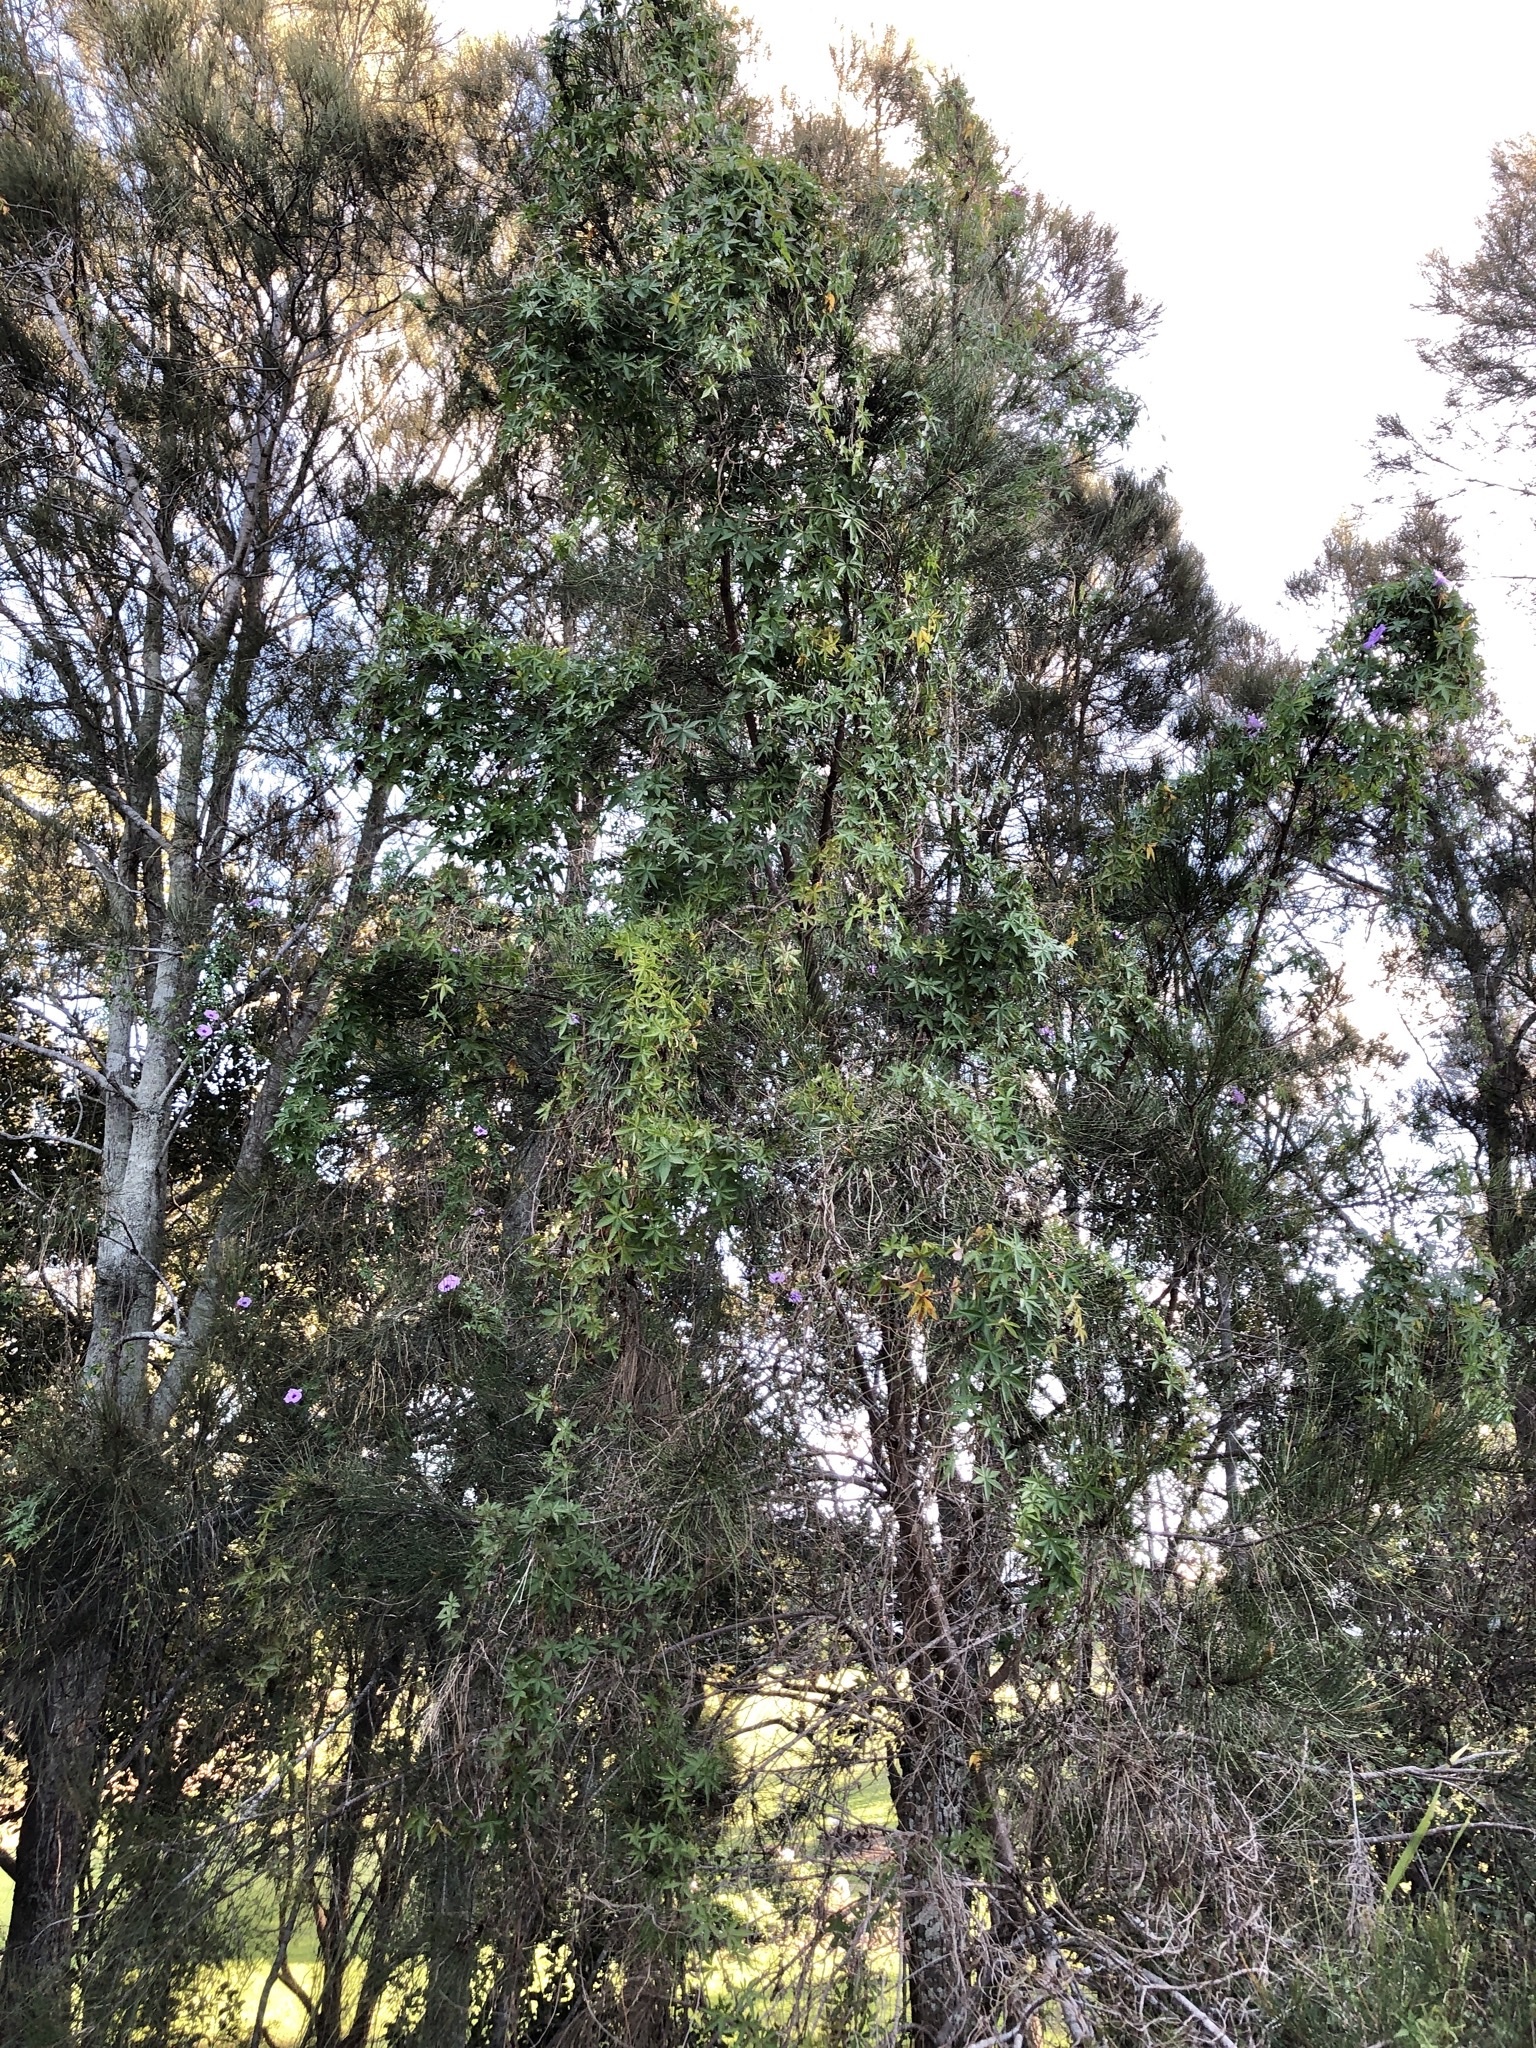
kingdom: Plantae
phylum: Tracheophyta
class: Magnoliopsida
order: Solanales
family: Convolvulaceae
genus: Ipomoea
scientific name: Ipomoea cairica
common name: Mile a minute vine
